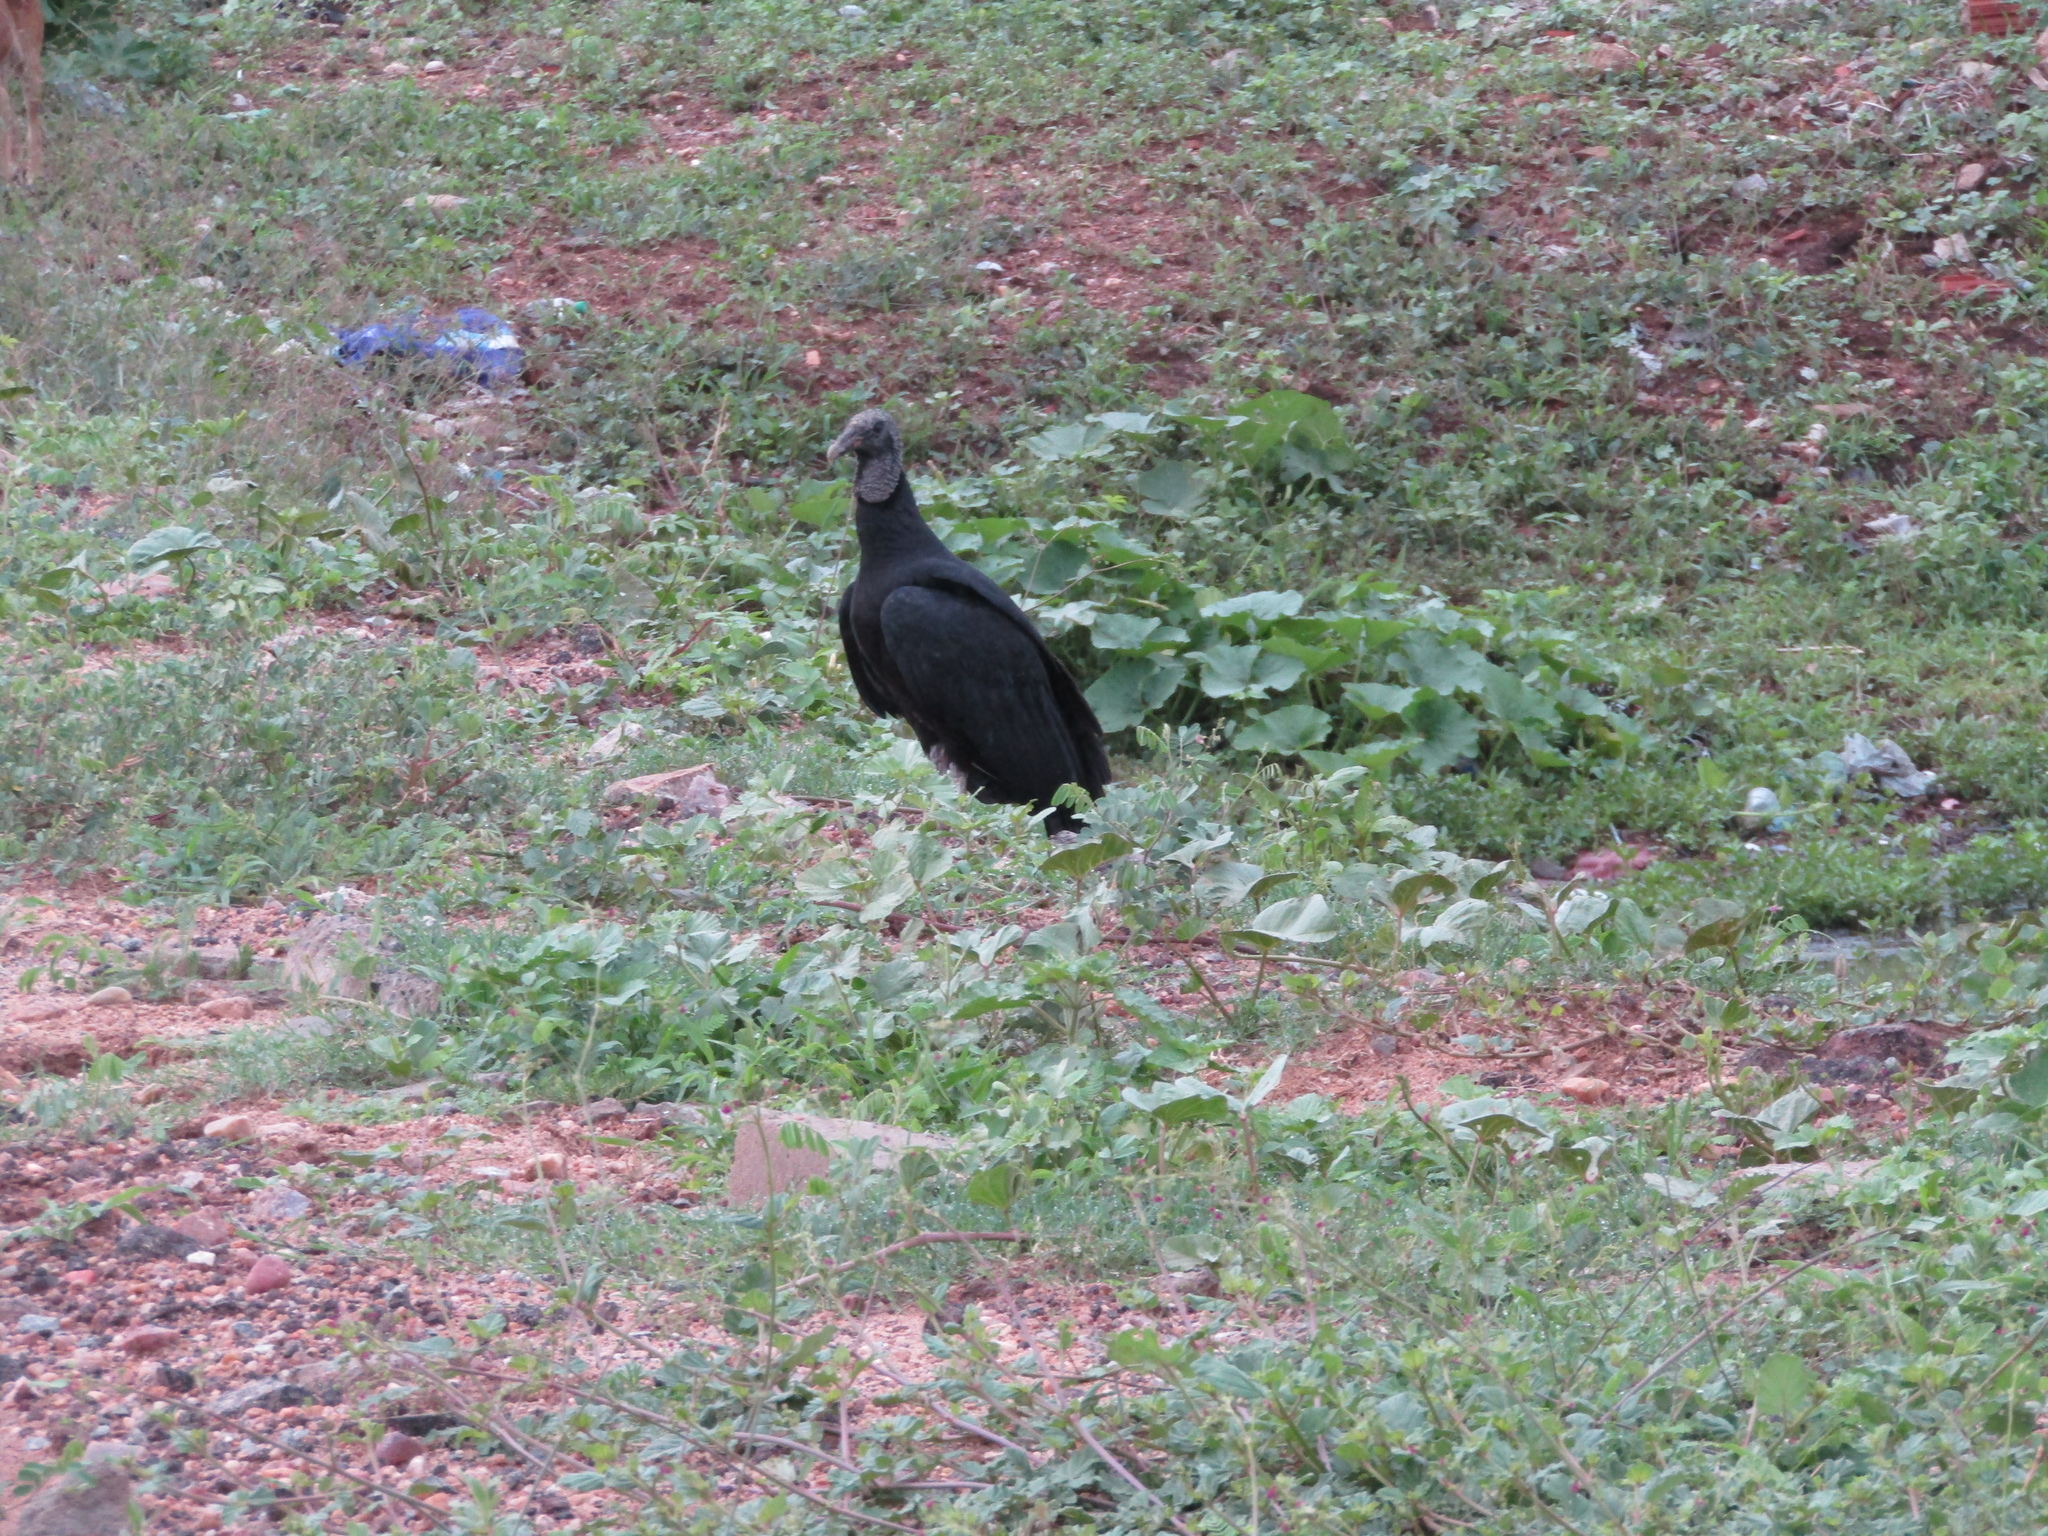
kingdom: Animalia
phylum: Chordata
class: Aves
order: Accipitriformes
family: Cathartidae
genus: Coragyps
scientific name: Coragyps atratus
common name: Black vulture
